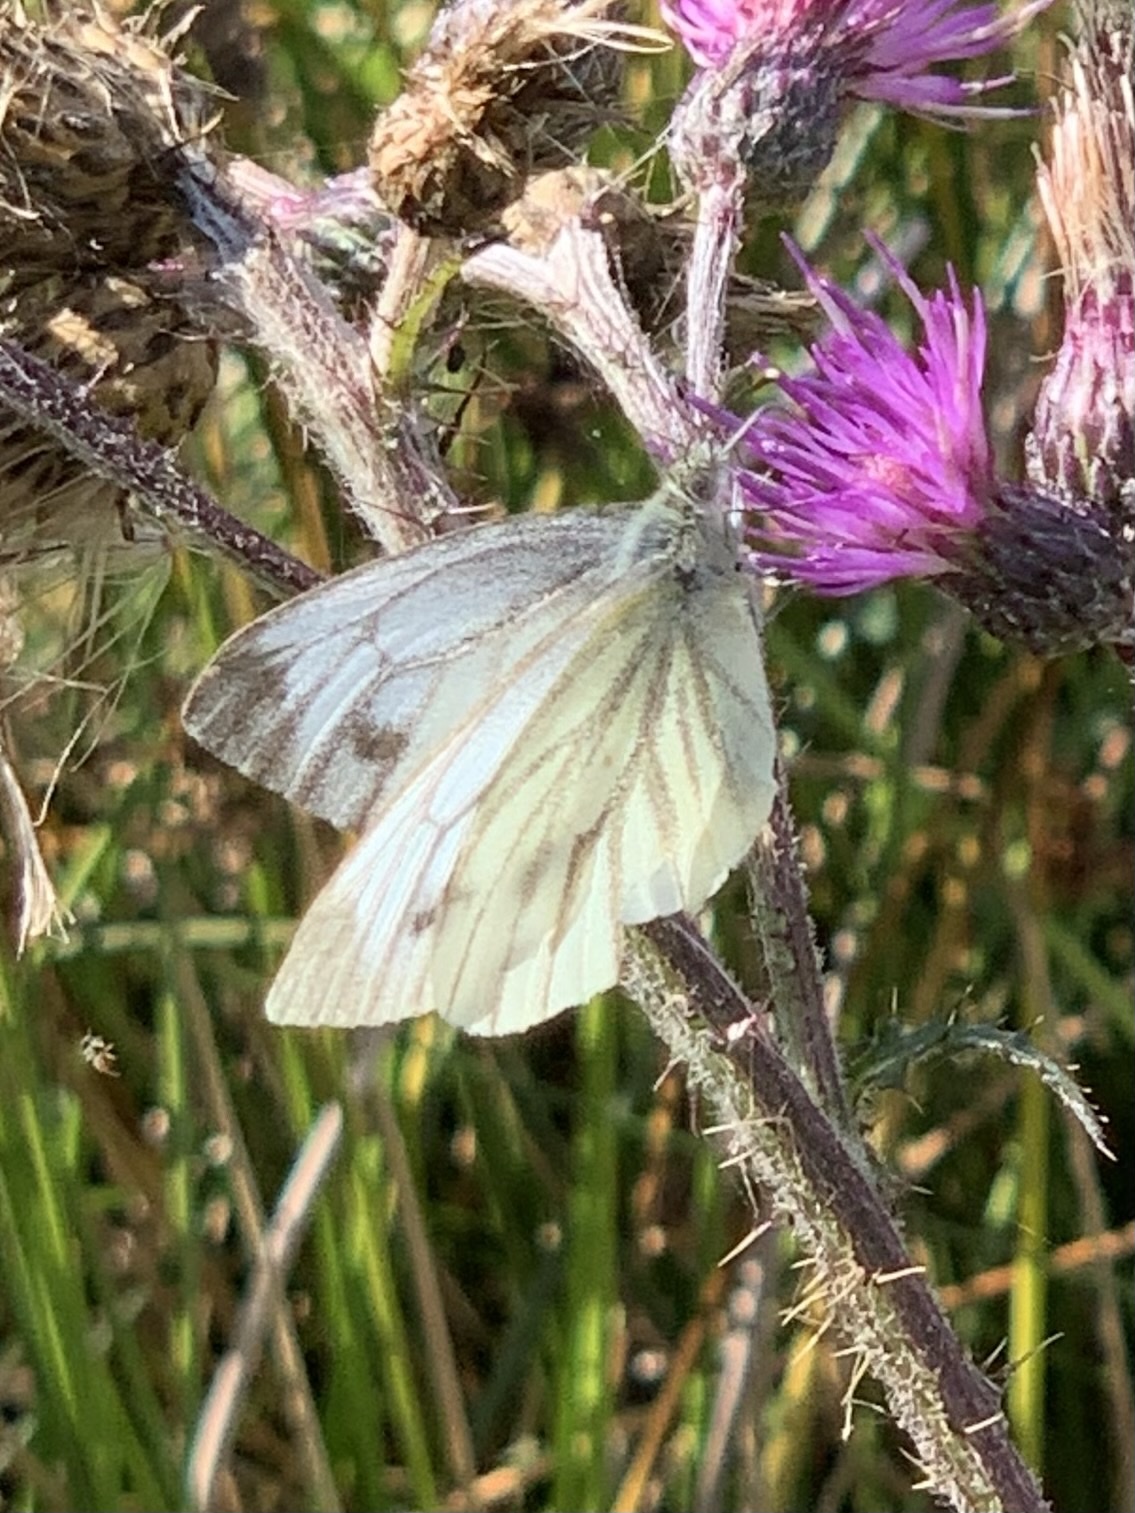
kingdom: Animalia
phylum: Arthropoda
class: Insecta
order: Lepidoptera
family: Pieridae
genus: Pieris
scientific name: Pieris napi
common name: Green-veined white
